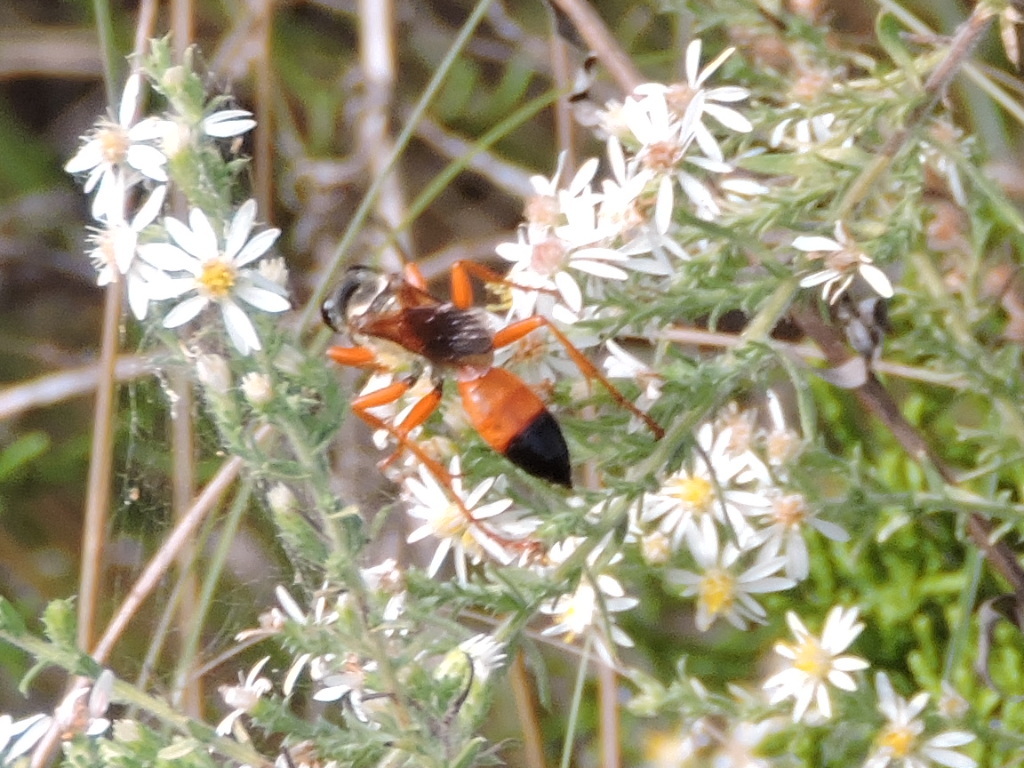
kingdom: Animalia
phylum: Arthropoda
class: Insecta
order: Hymenoptera
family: Sphecidae
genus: Sphex
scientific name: Sphex ichneumoneus
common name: Great golden digger wasp
